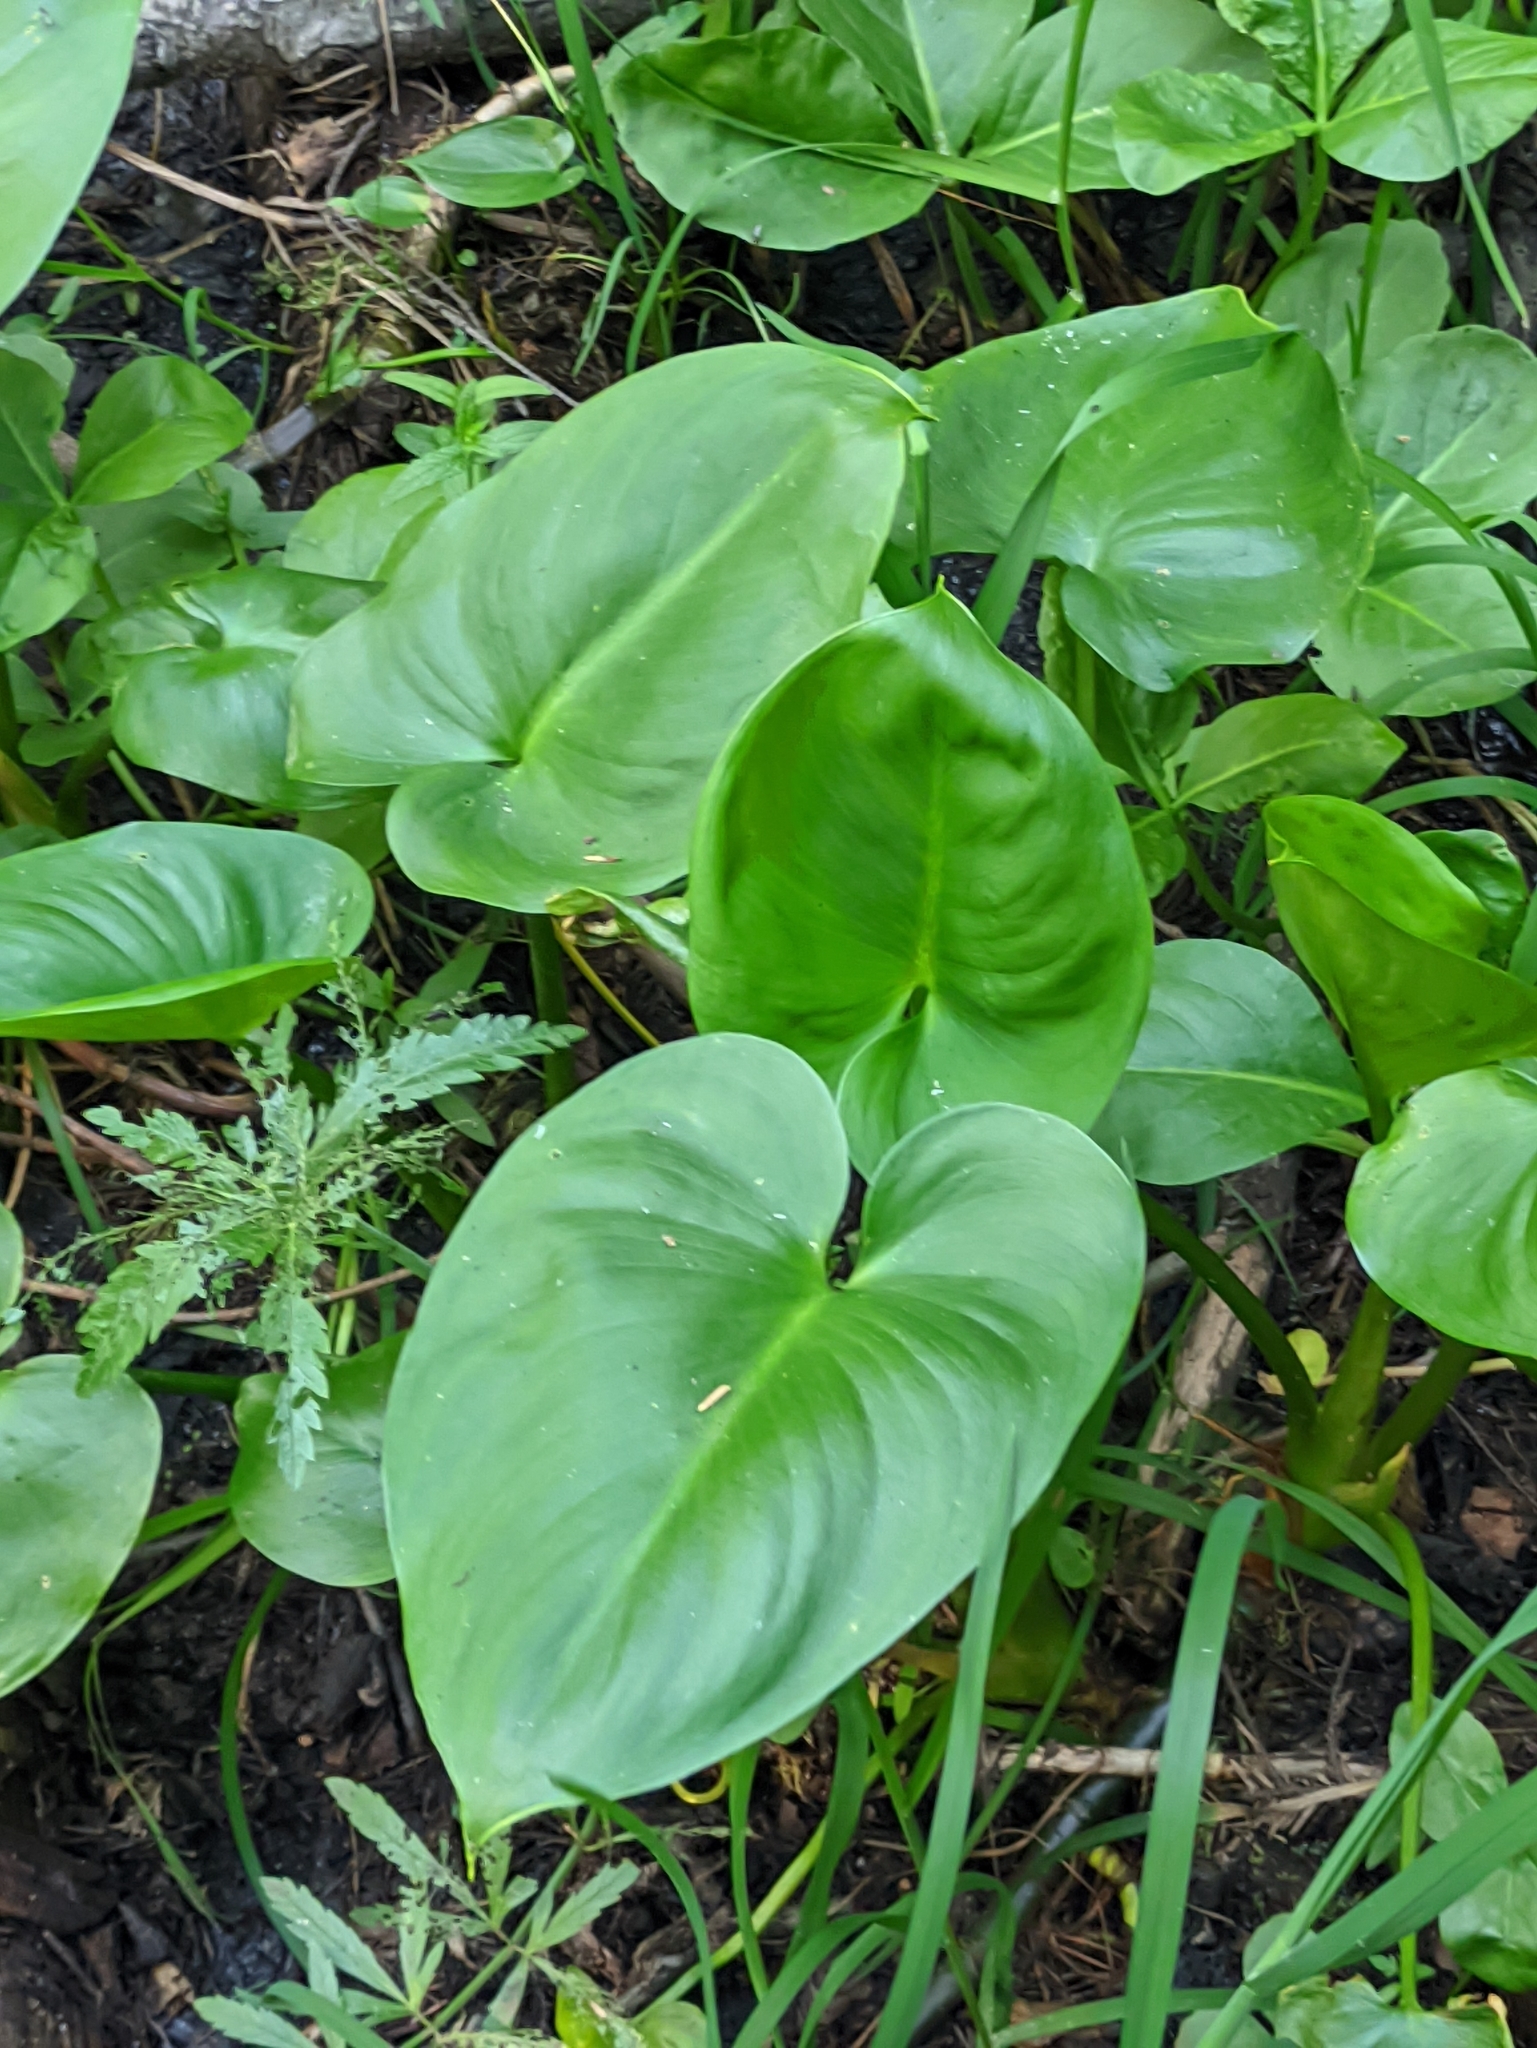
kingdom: Plantae
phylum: Tracheophyta
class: Liliopsida
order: Alismatales
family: Araceae
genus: Calla
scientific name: Calla palustris
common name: Bog arum
